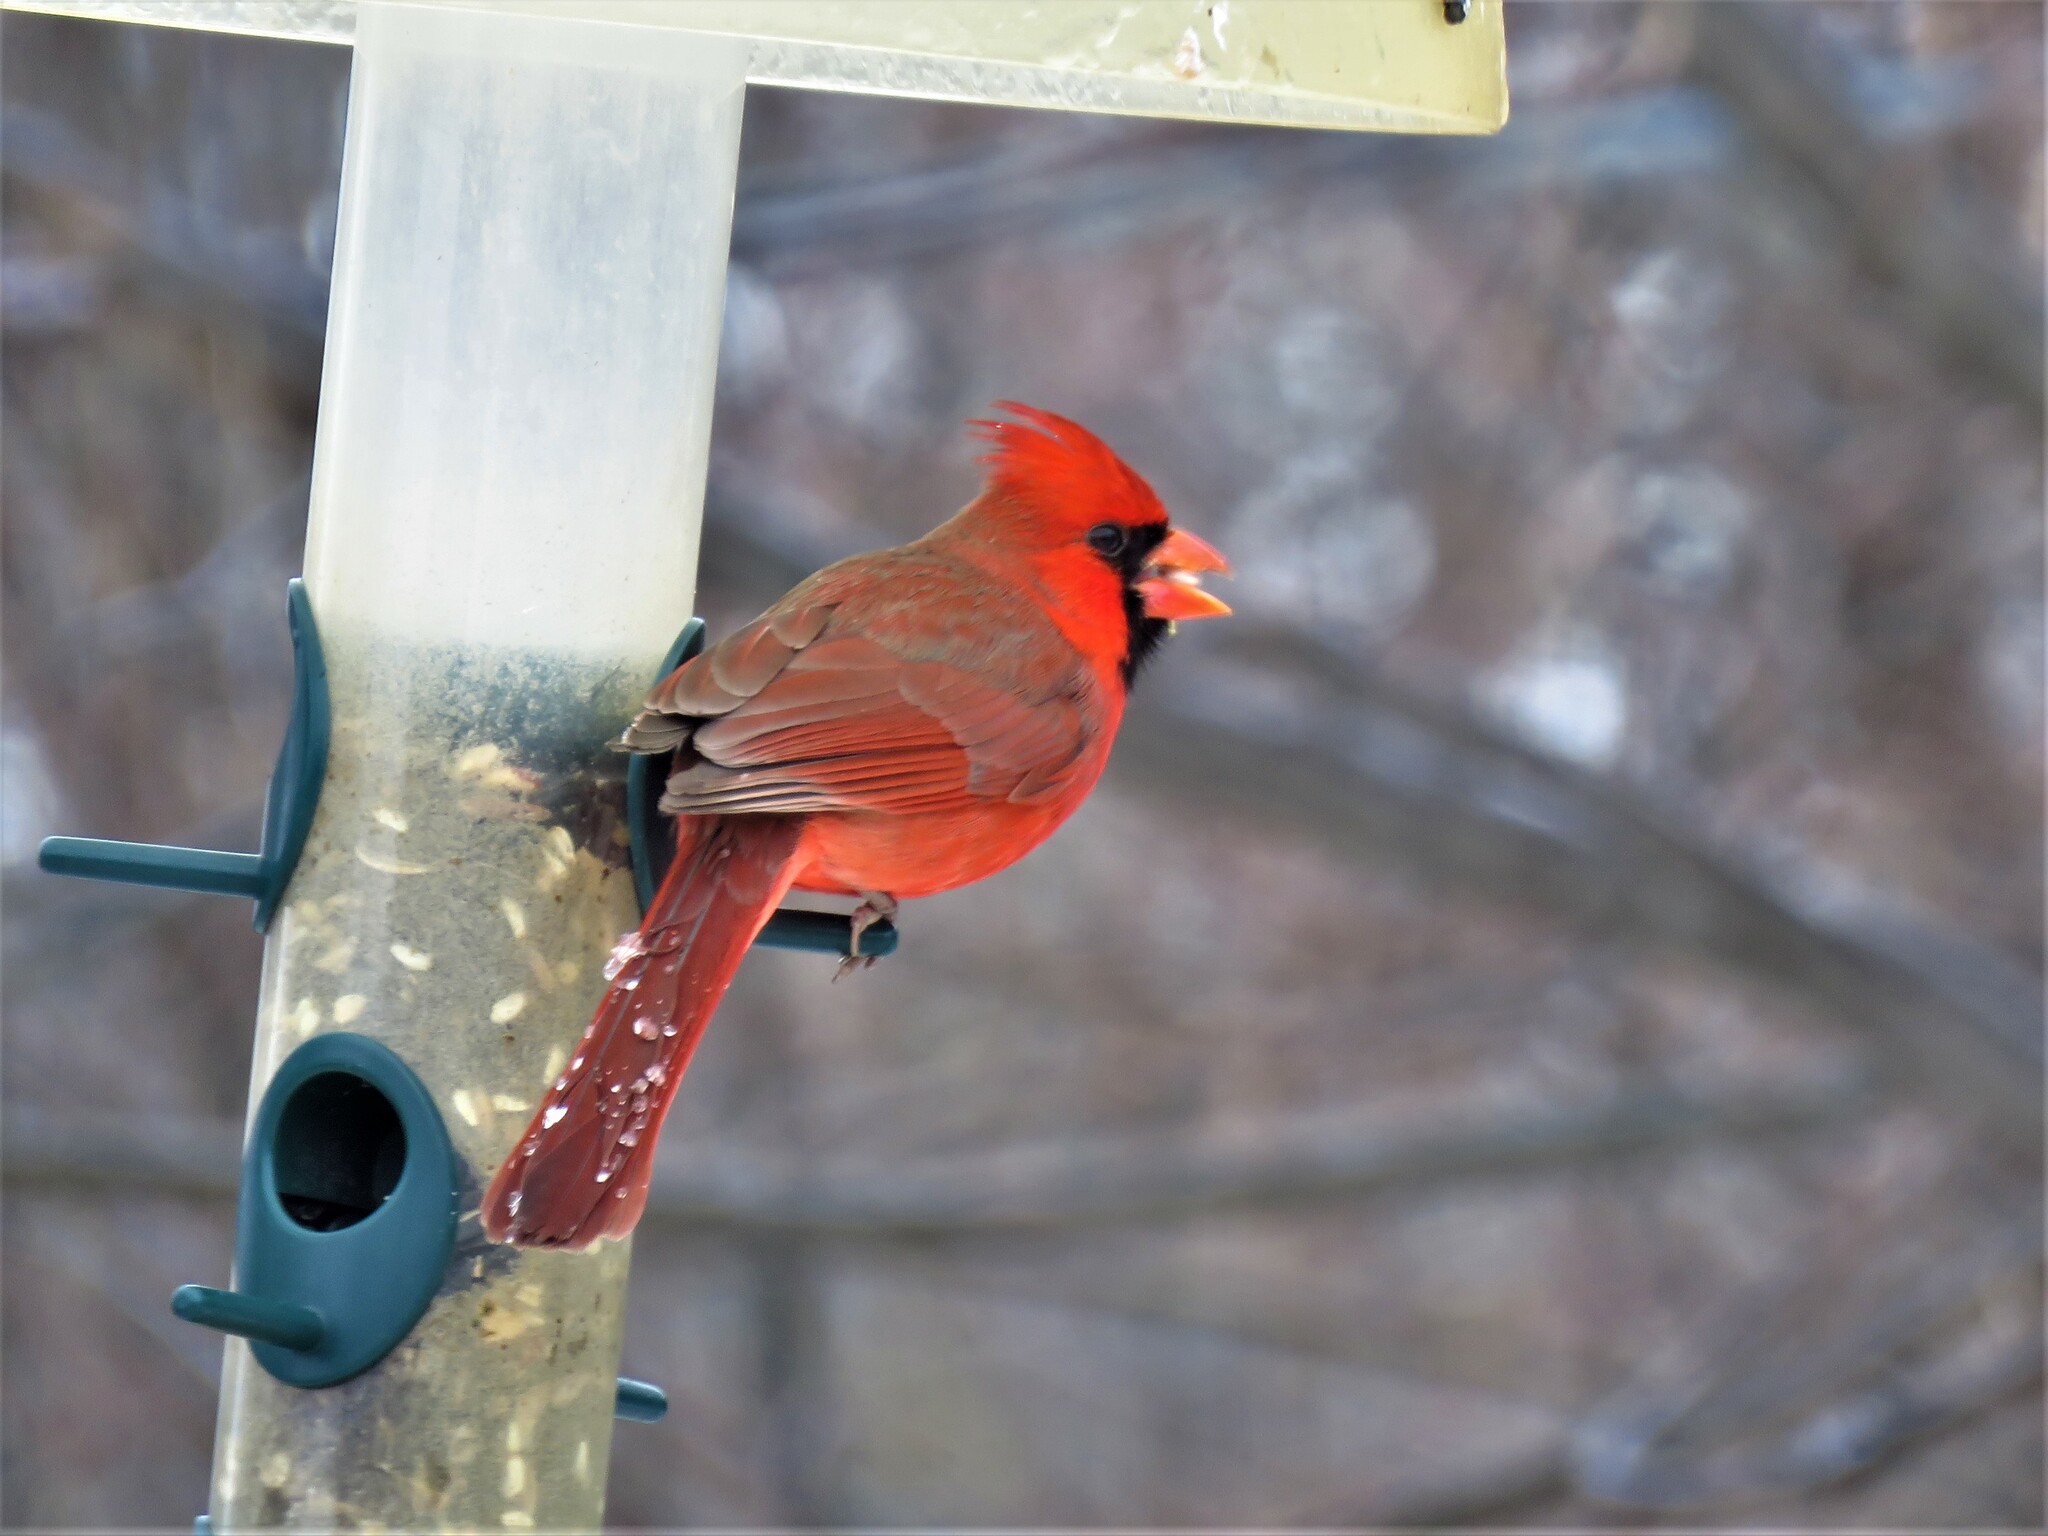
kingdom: Animalia
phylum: Chordata
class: Aves
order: Passeriformes
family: Cardinalidae
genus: Cardinalis
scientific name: Cardinalis cardinalis
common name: Northern cardinal
